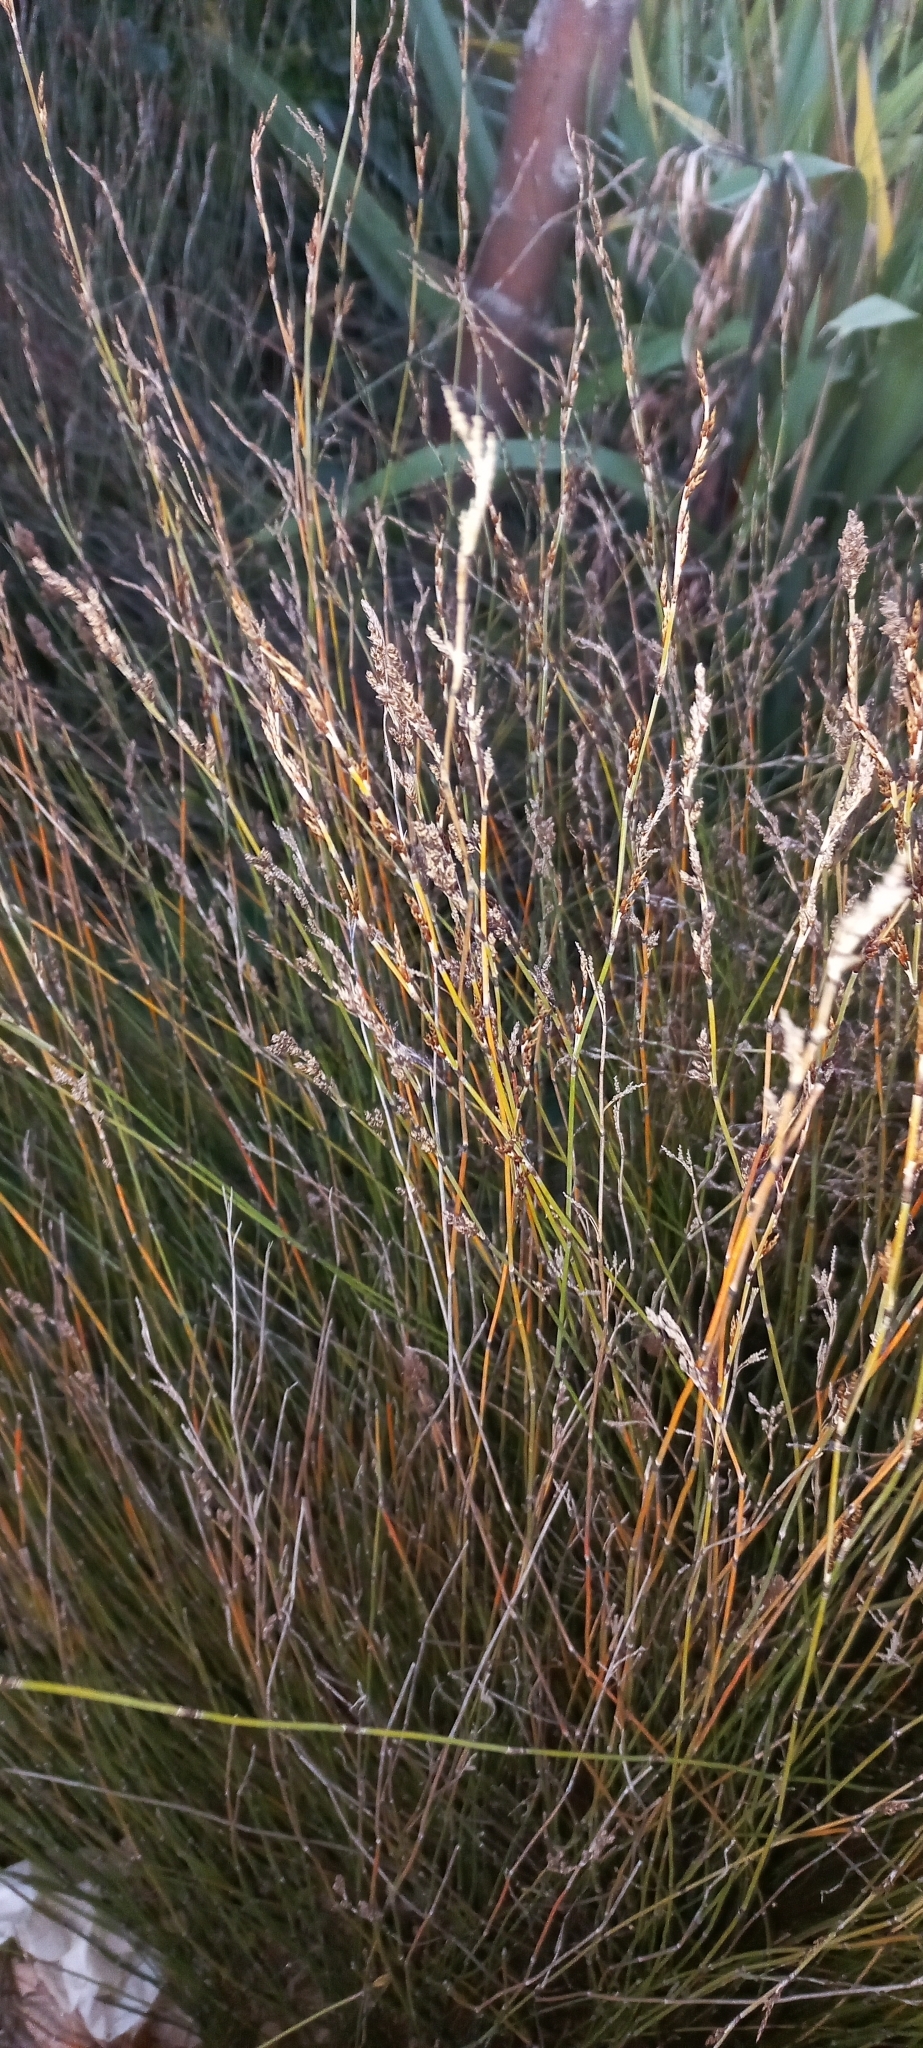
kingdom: Plantae
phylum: Tracheophyta
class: Liliopsida
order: Poales
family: Restionaceae
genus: Apodasmia
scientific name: Apodasmia similis
